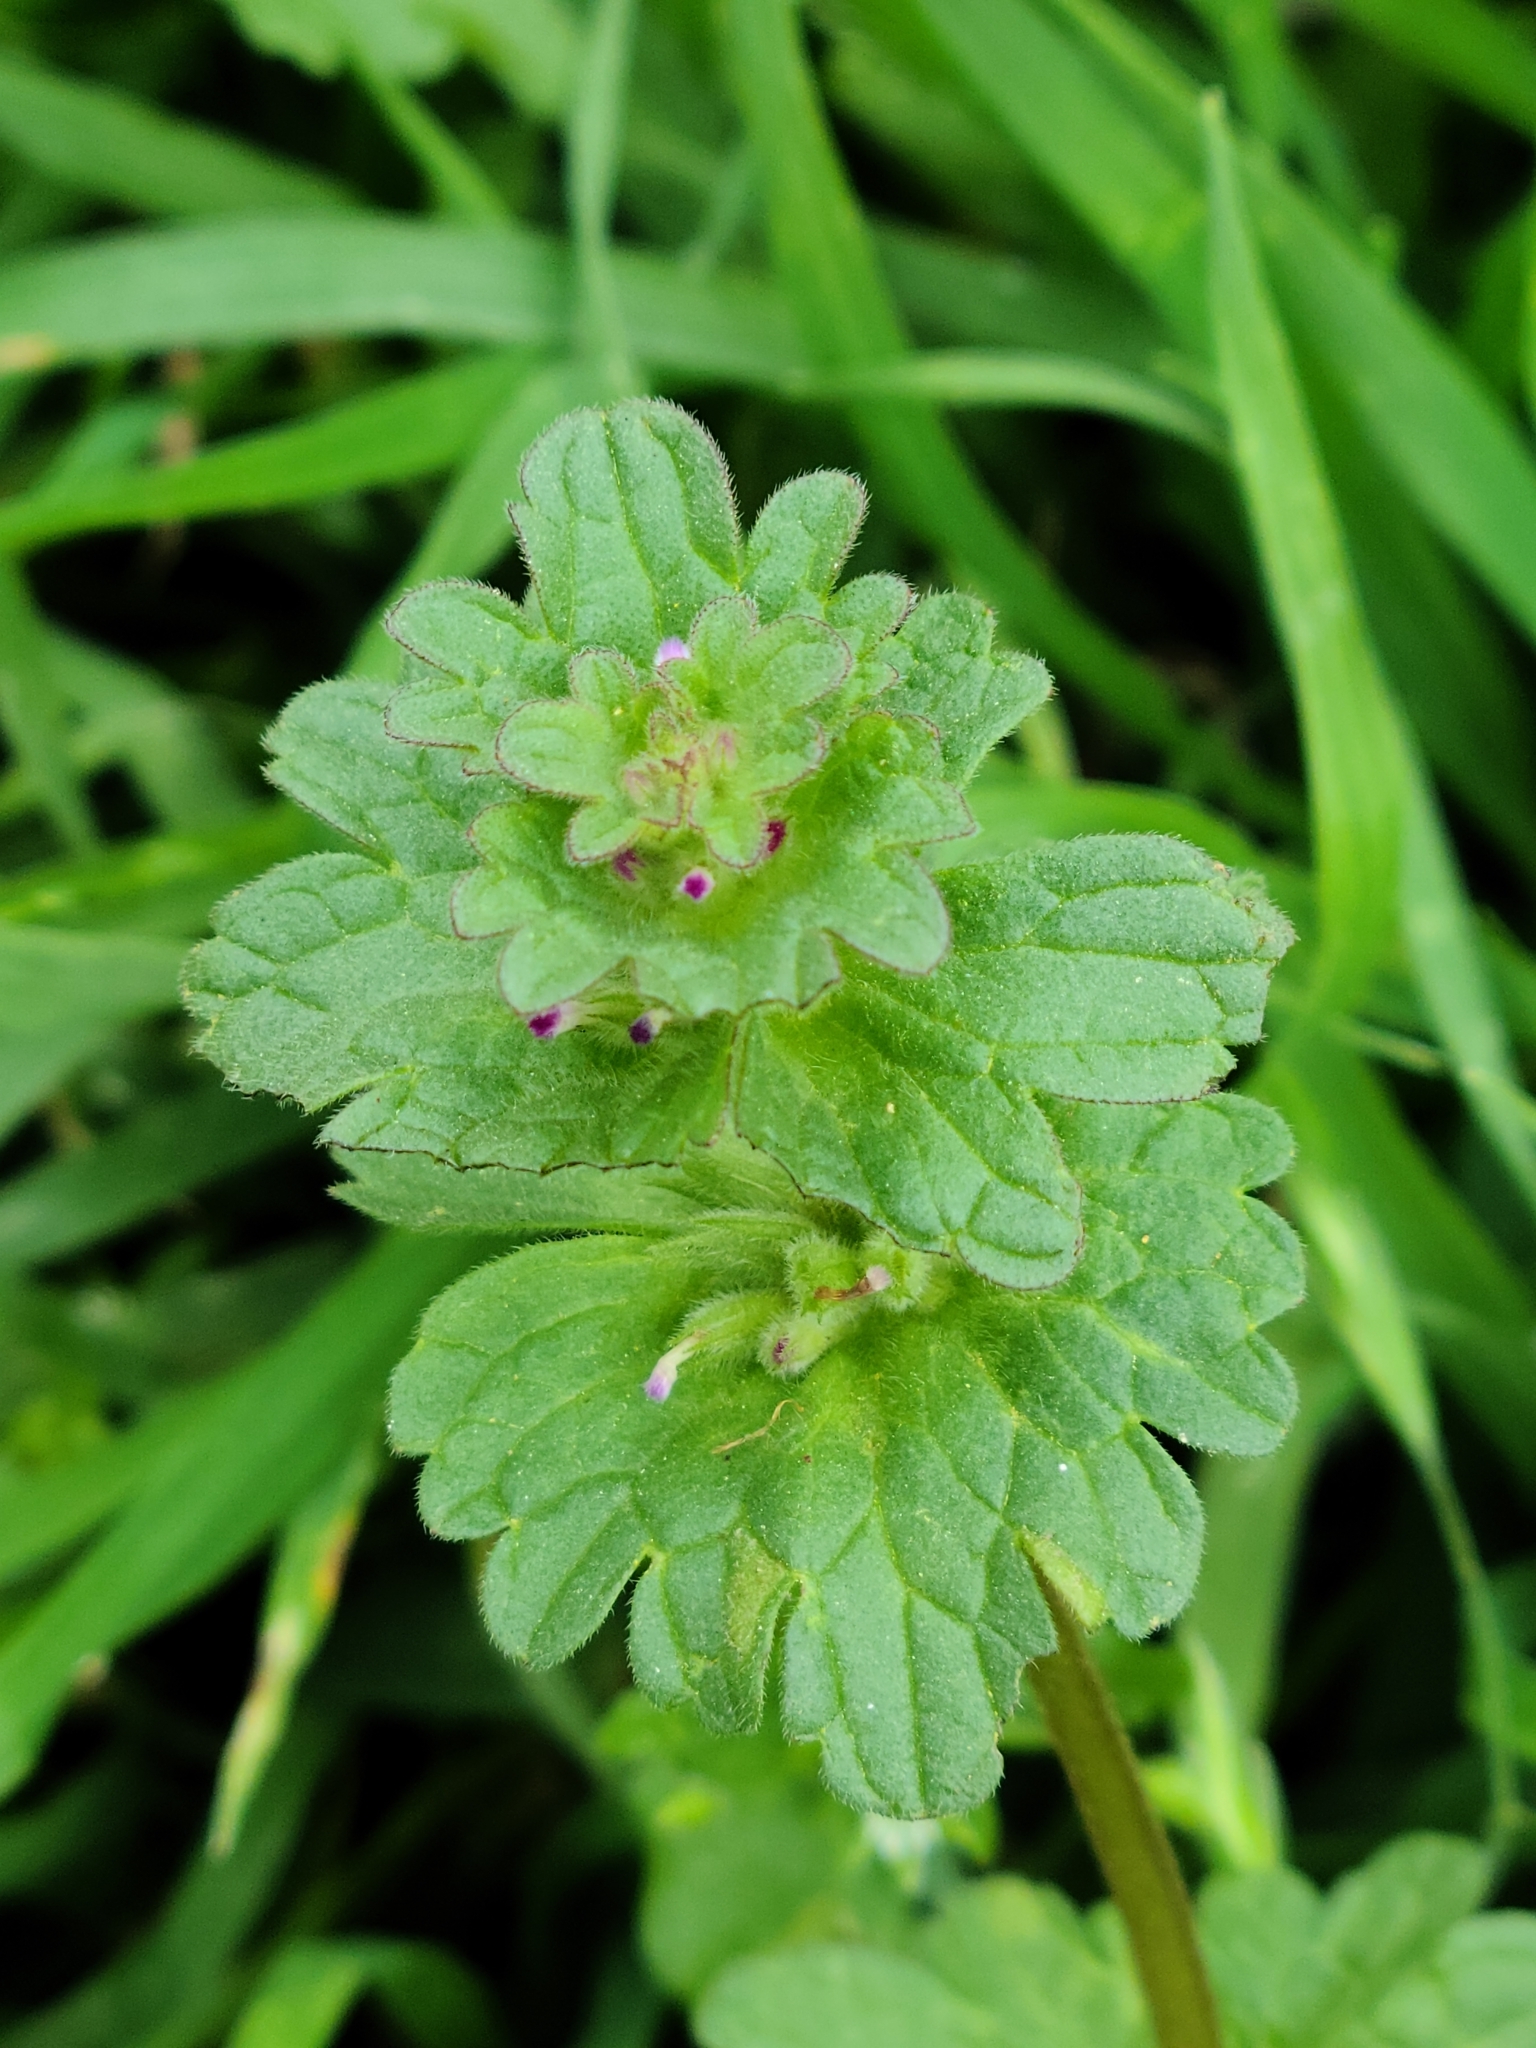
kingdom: Plantae
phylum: Tracheophyta
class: Magnoliopsida
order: Lamiales
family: Lamiaceae
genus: Lamium
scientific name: Lamium amplexicaule
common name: Henbit dead-nettle
